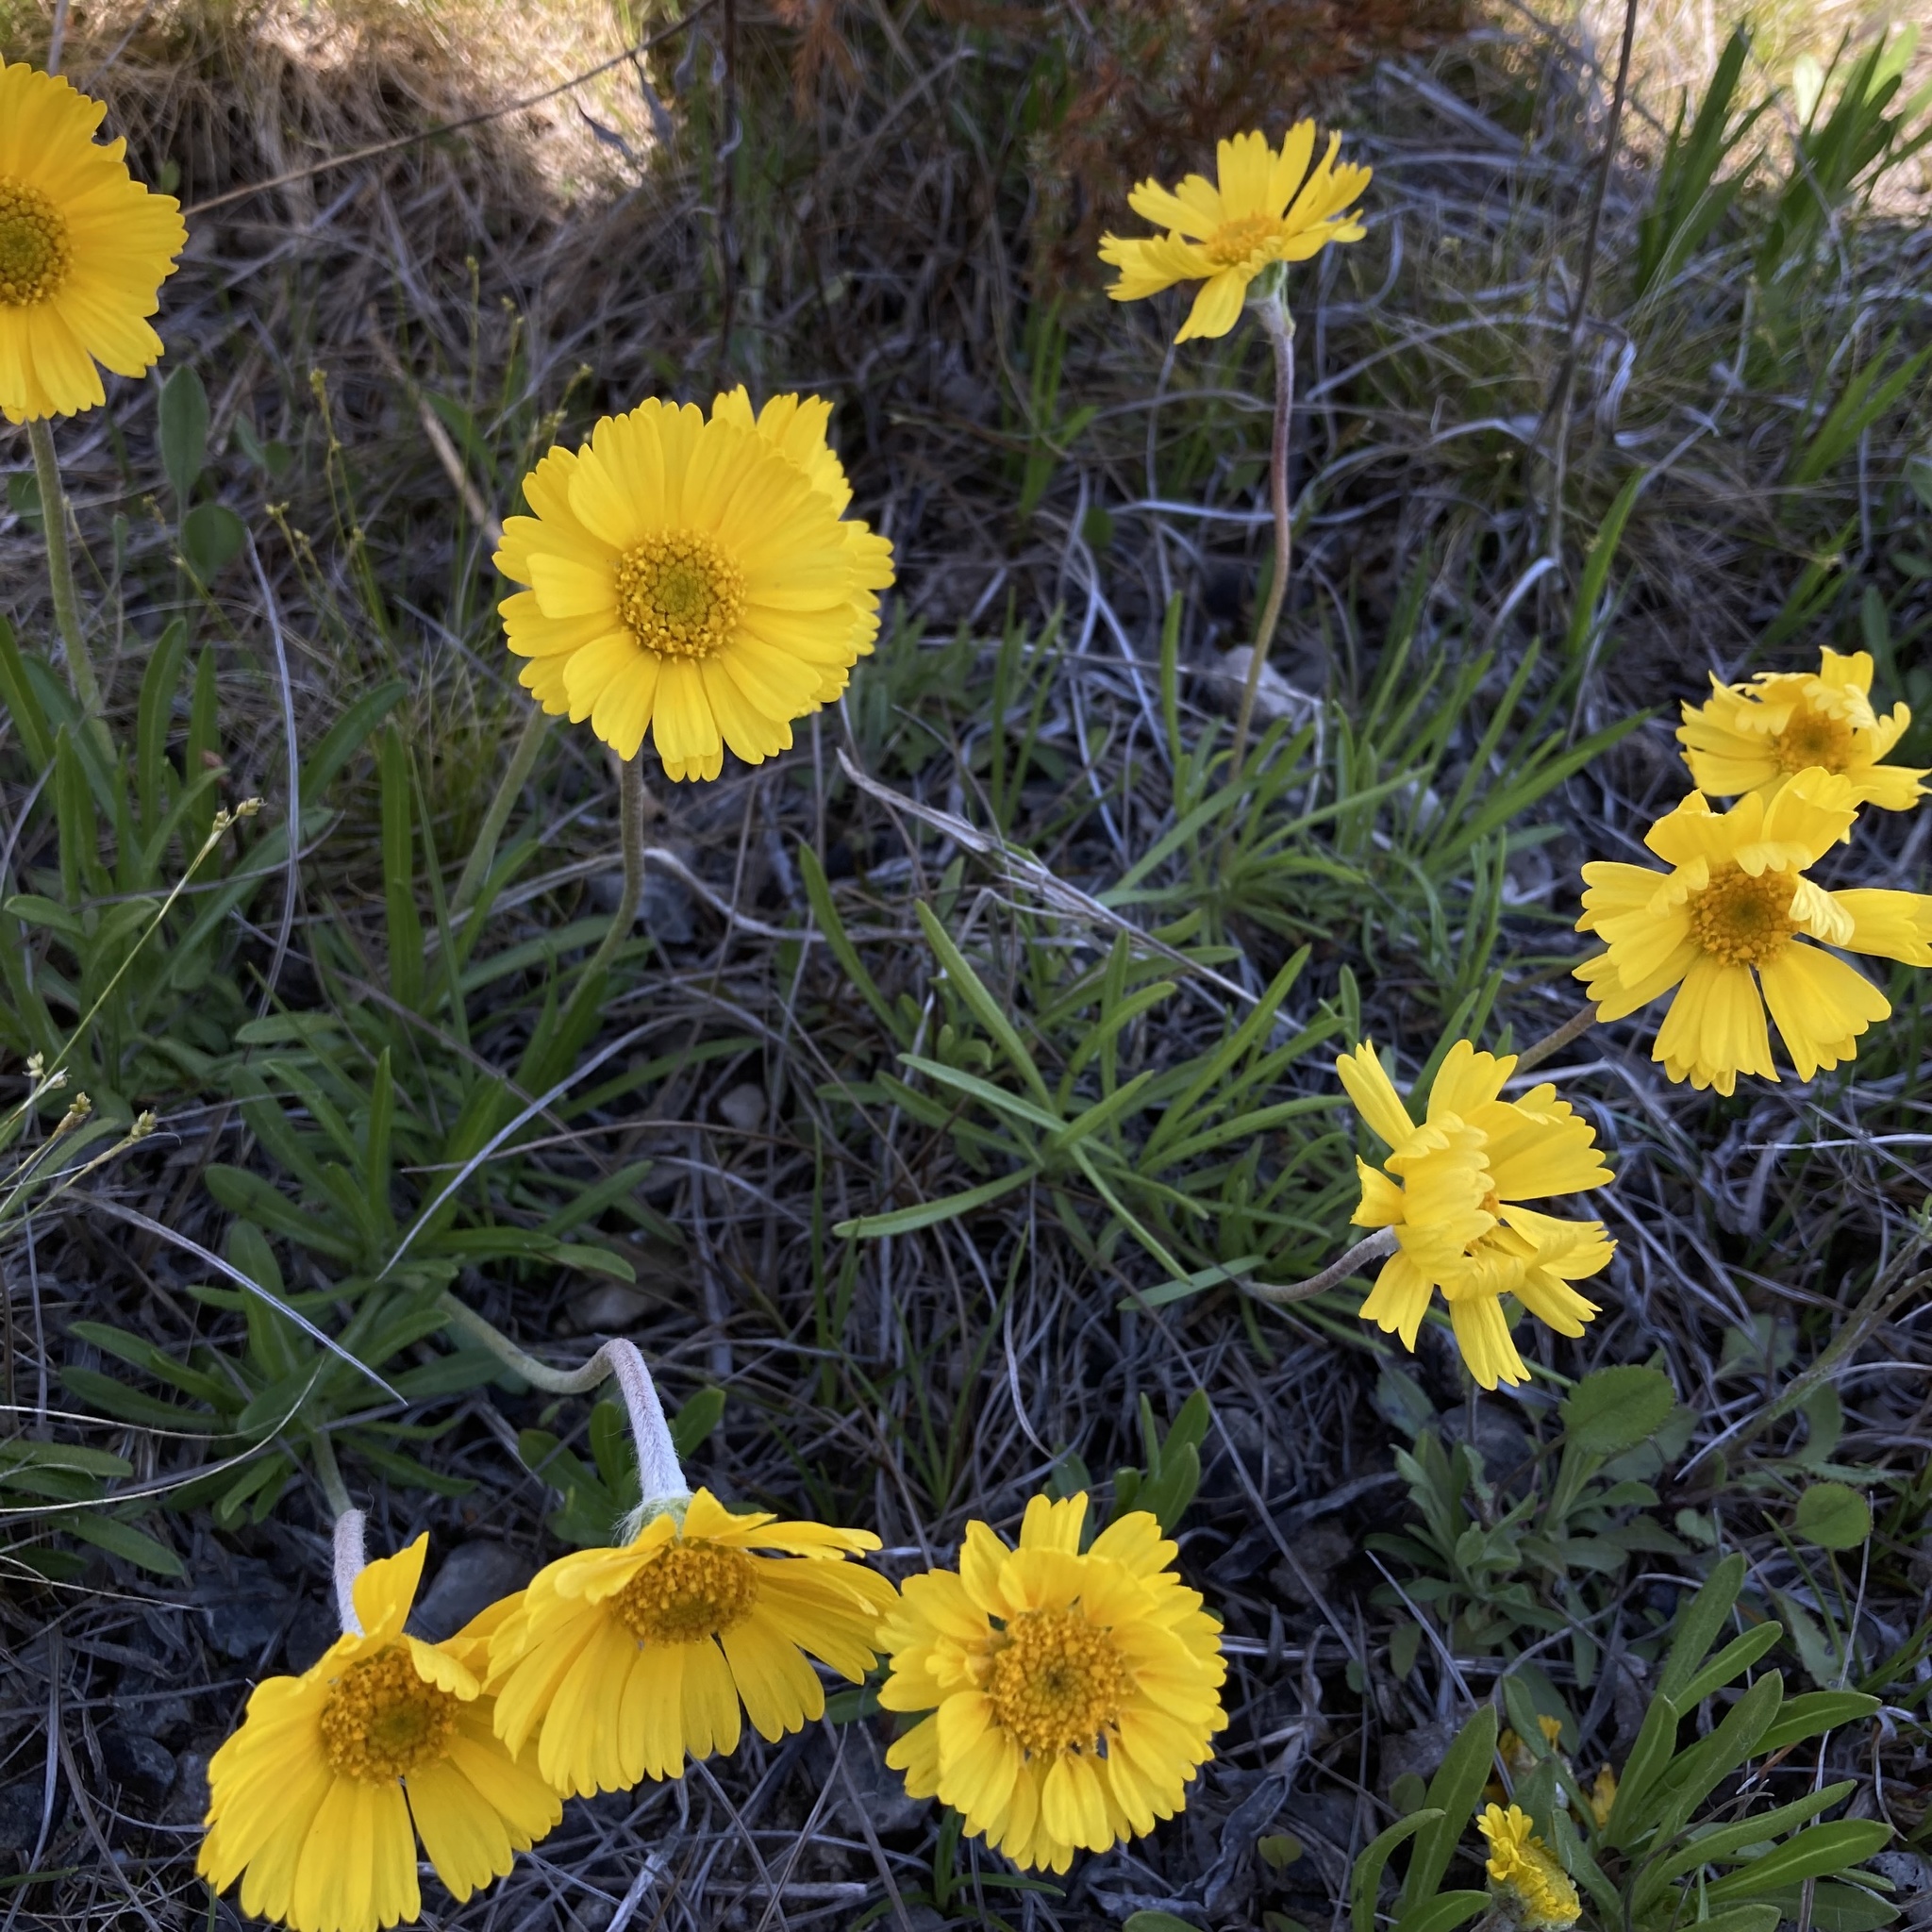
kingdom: Plantae
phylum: Tracheophyta
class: Magnoliopsida
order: Asterales
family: Asteraceae
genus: Tetraneuris
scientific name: Tetraneuris herbacea
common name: Lakeside daisy
